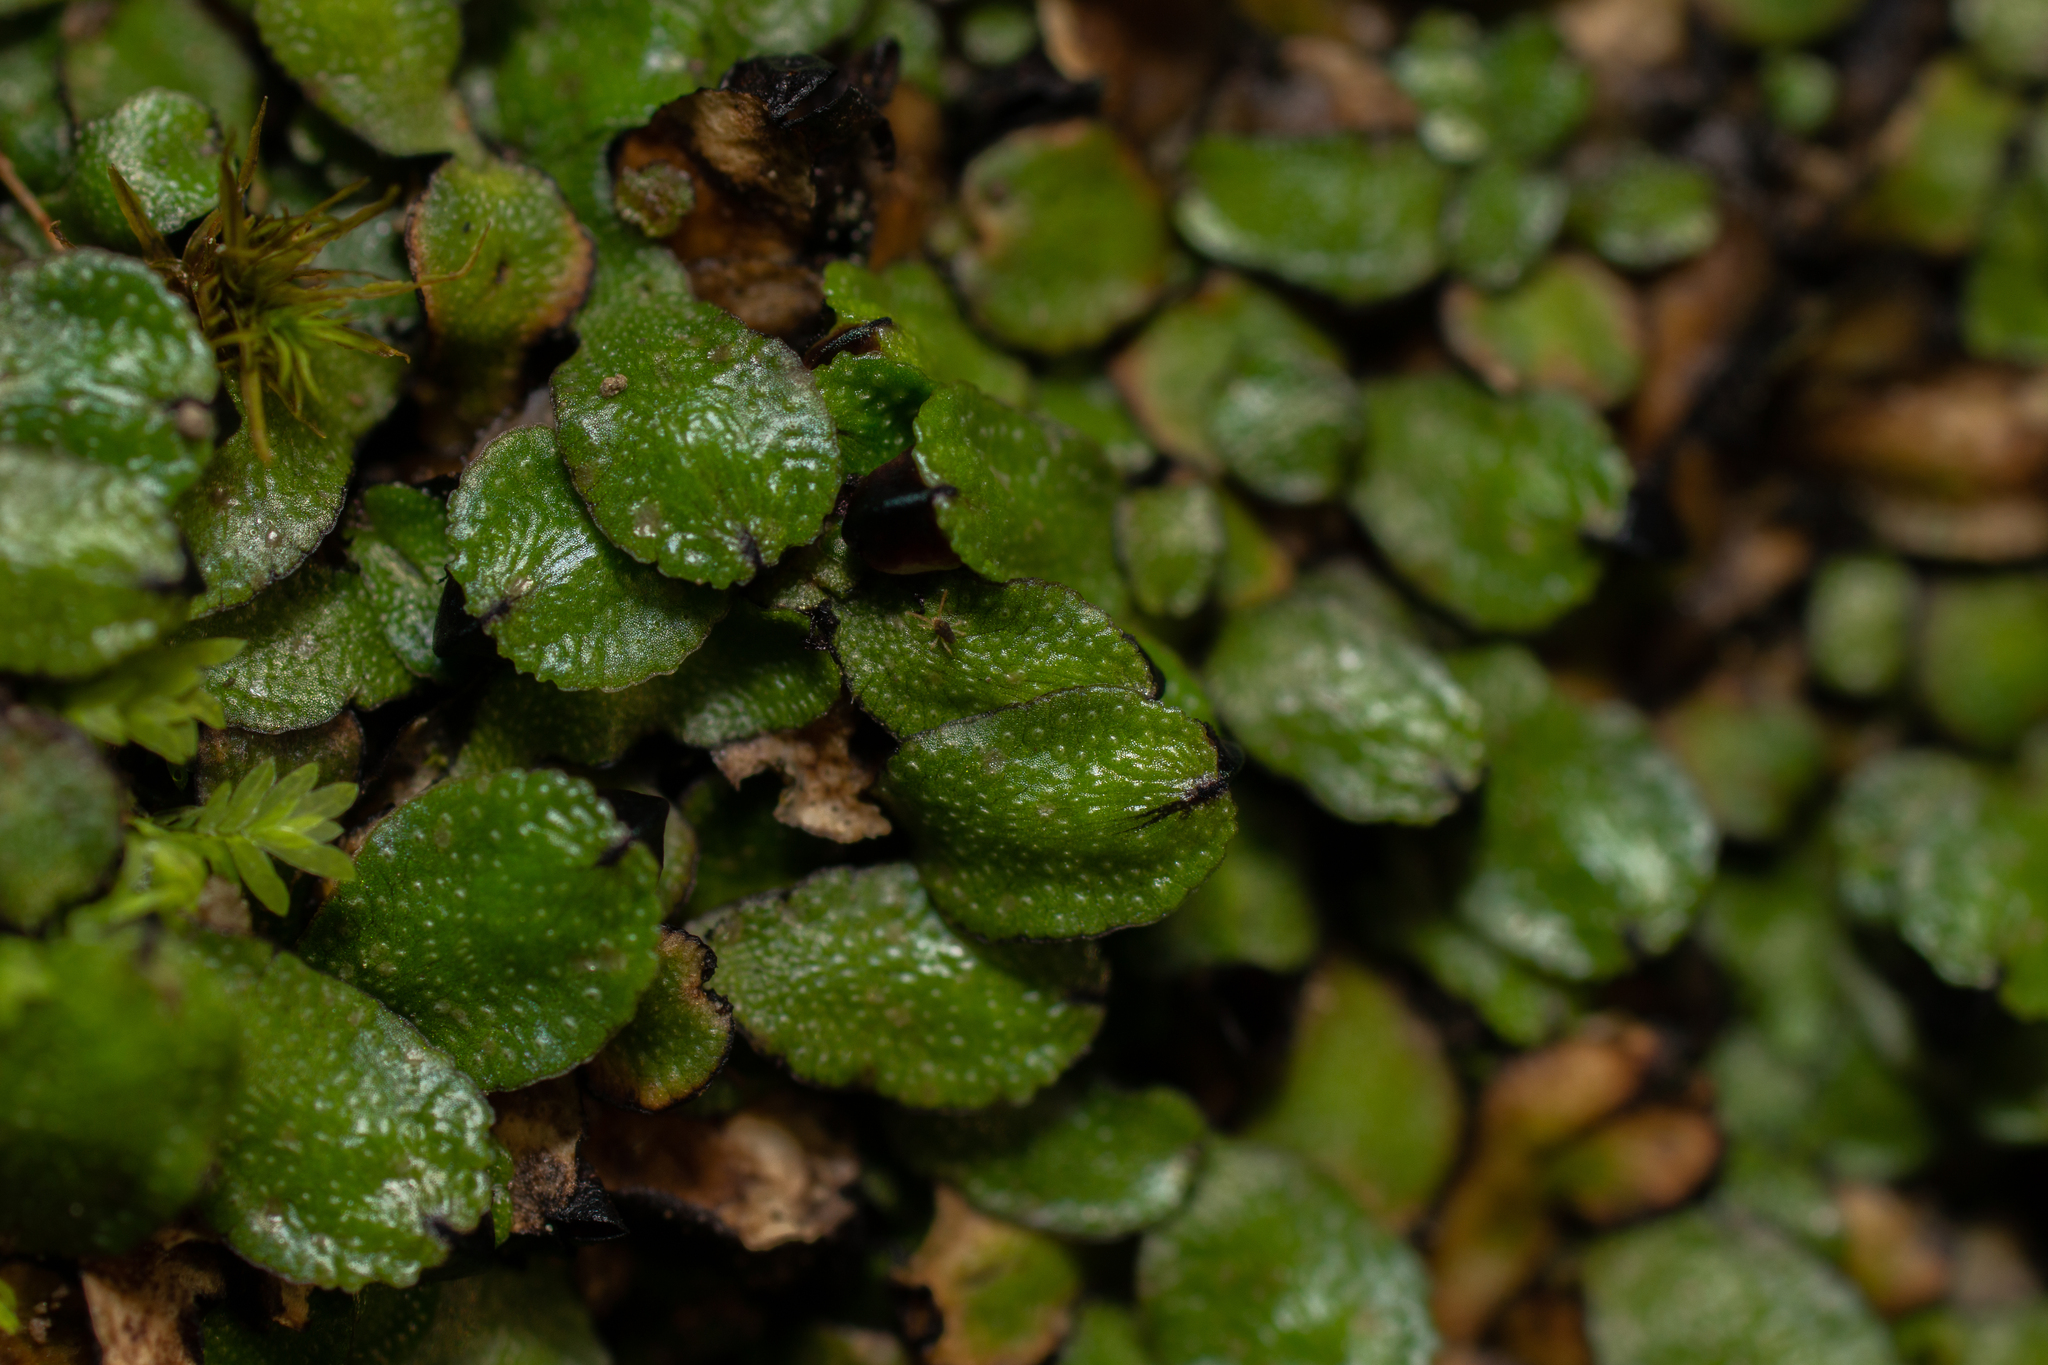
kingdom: Plantae
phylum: Marchantiophyta
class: Marchantiopsida
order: Marchantiales
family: Targioniaceae
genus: Targionia
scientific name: Targionia hypophylla
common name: Orobus-seed liverwort
